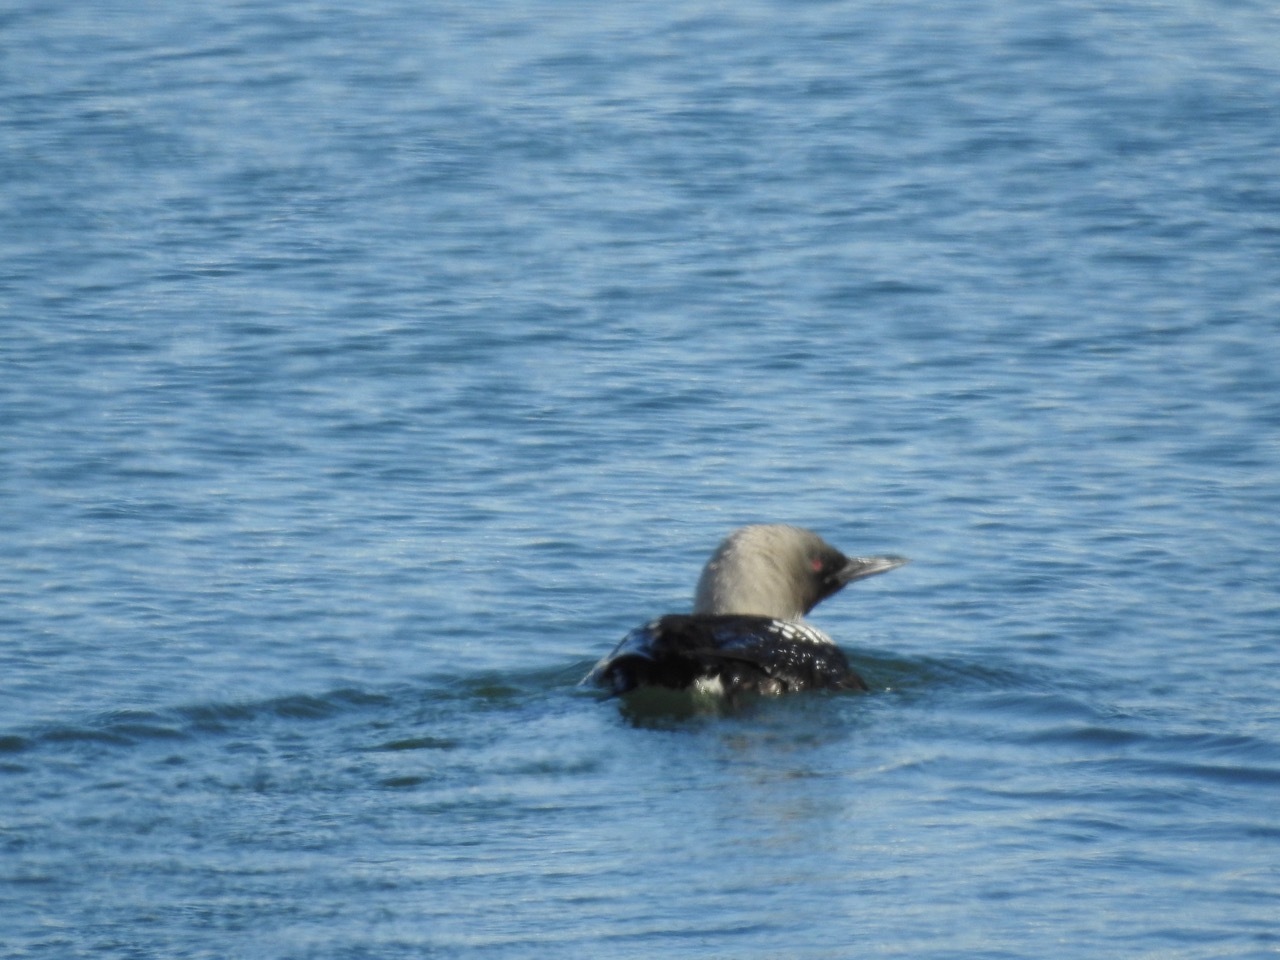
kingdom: Animalia
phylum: Chordata
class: Aves
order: Gaviiformes
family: Gaviidae
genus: Gavia
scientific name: Gavia pacifica
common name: Pacific loon
